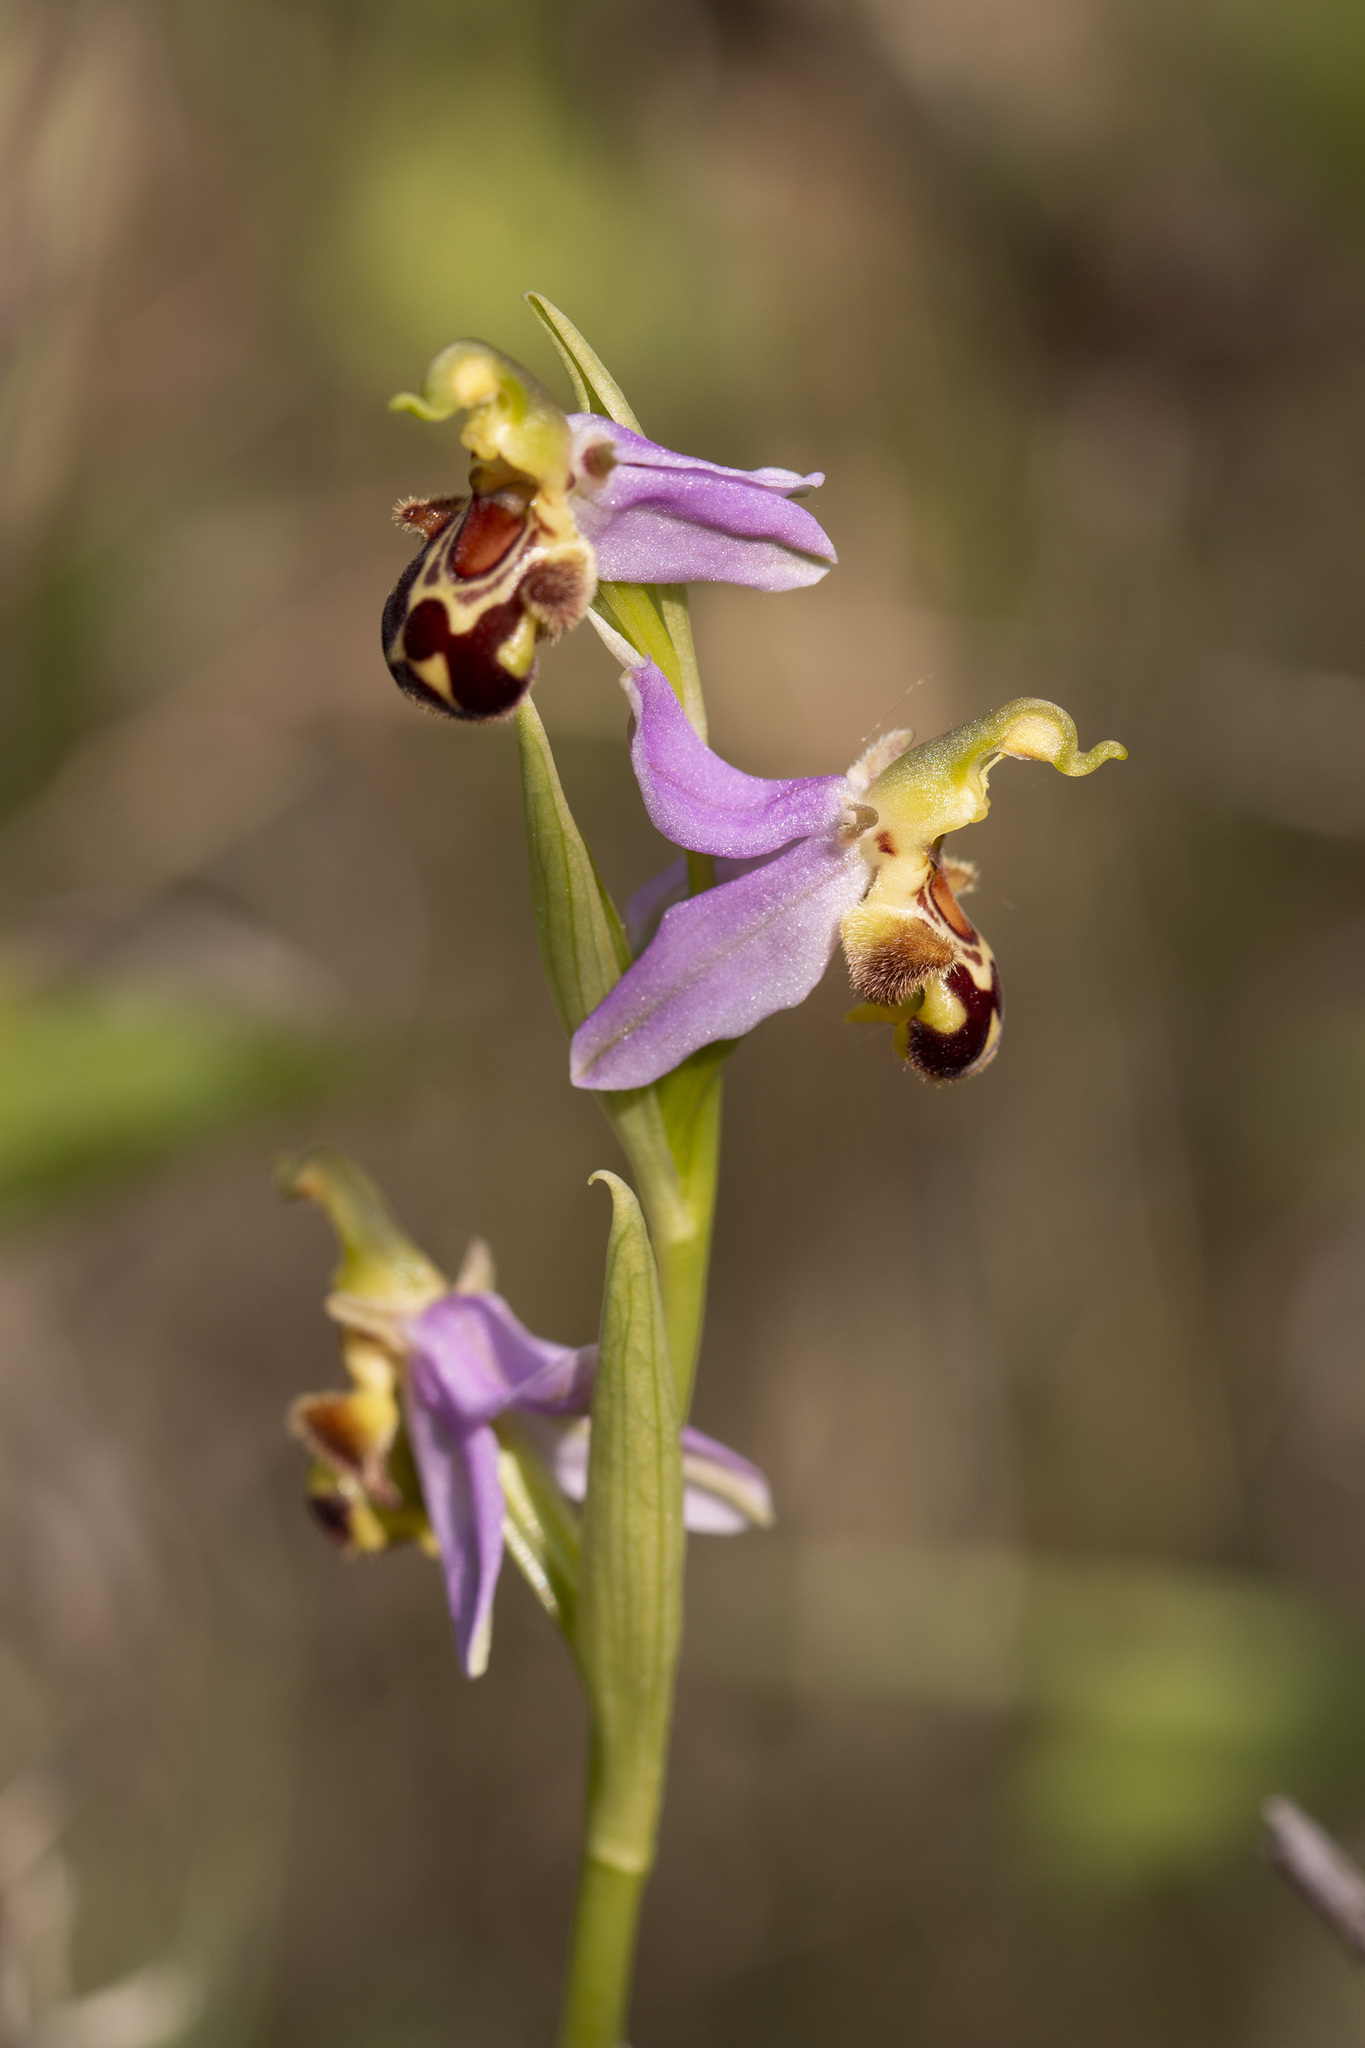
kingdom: Plantae
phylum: Tracheophyta
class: Liliopsida
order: Asparagales
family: Orchidaceae
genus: Ophrys
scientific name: Ophrys apifera
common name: Bee orchid
